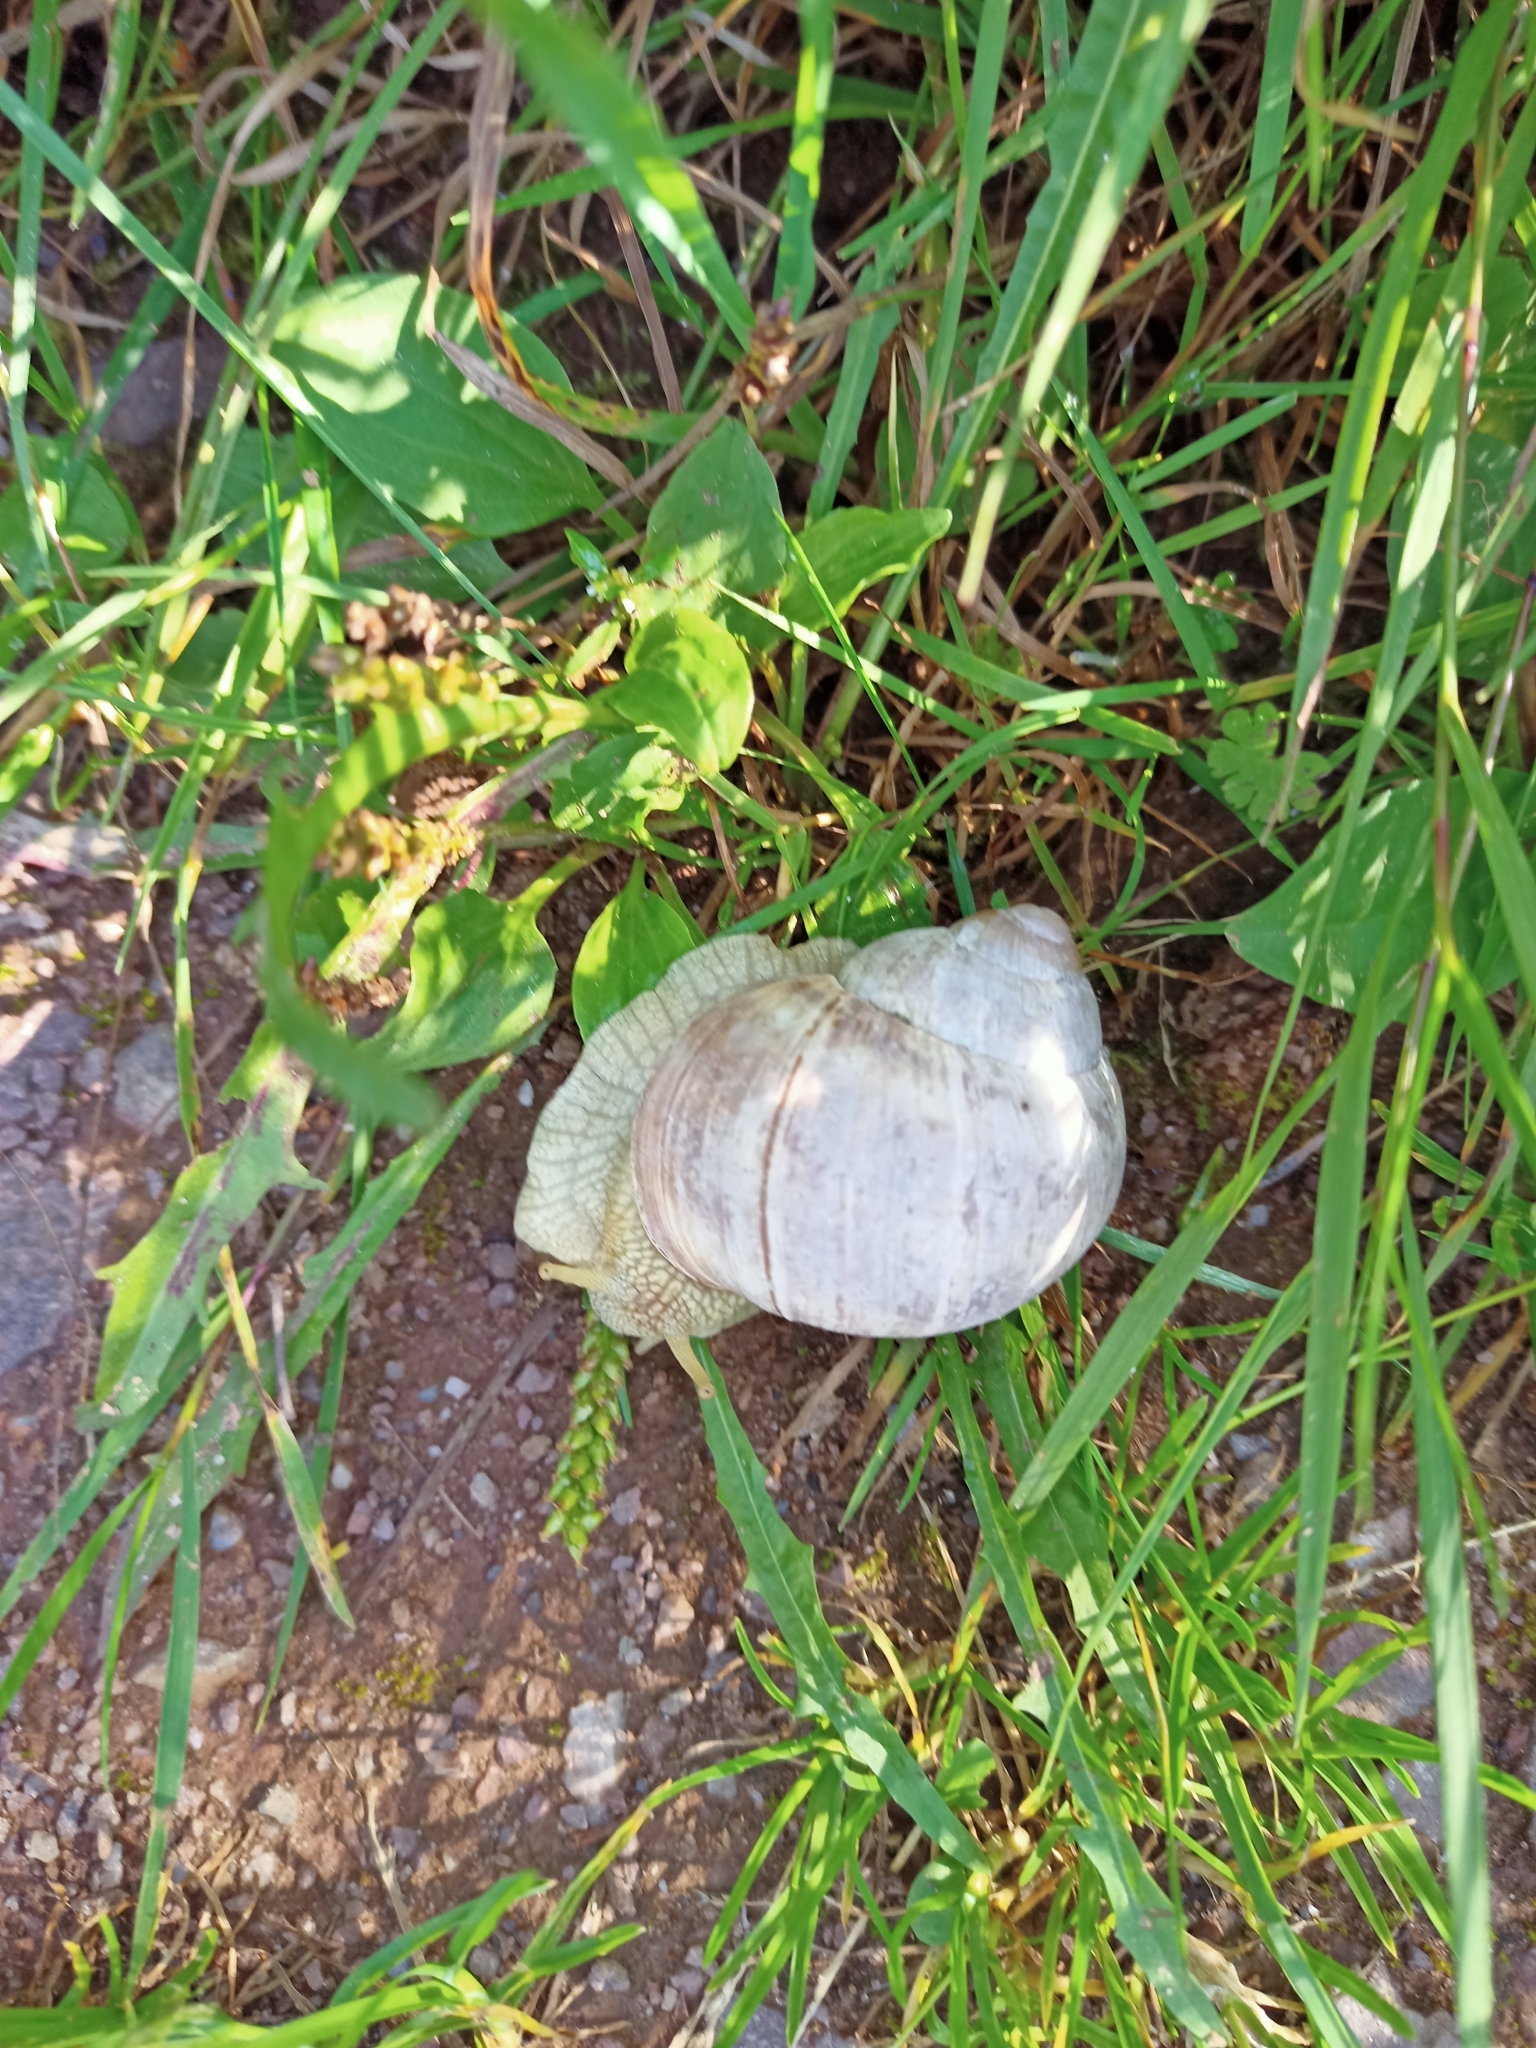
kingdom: Animalia
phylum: Mollusca
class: Gastropoda
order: Stylommatophora
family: Helicidae
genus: Helix
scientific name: Helix pomatia
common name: Roman snail
